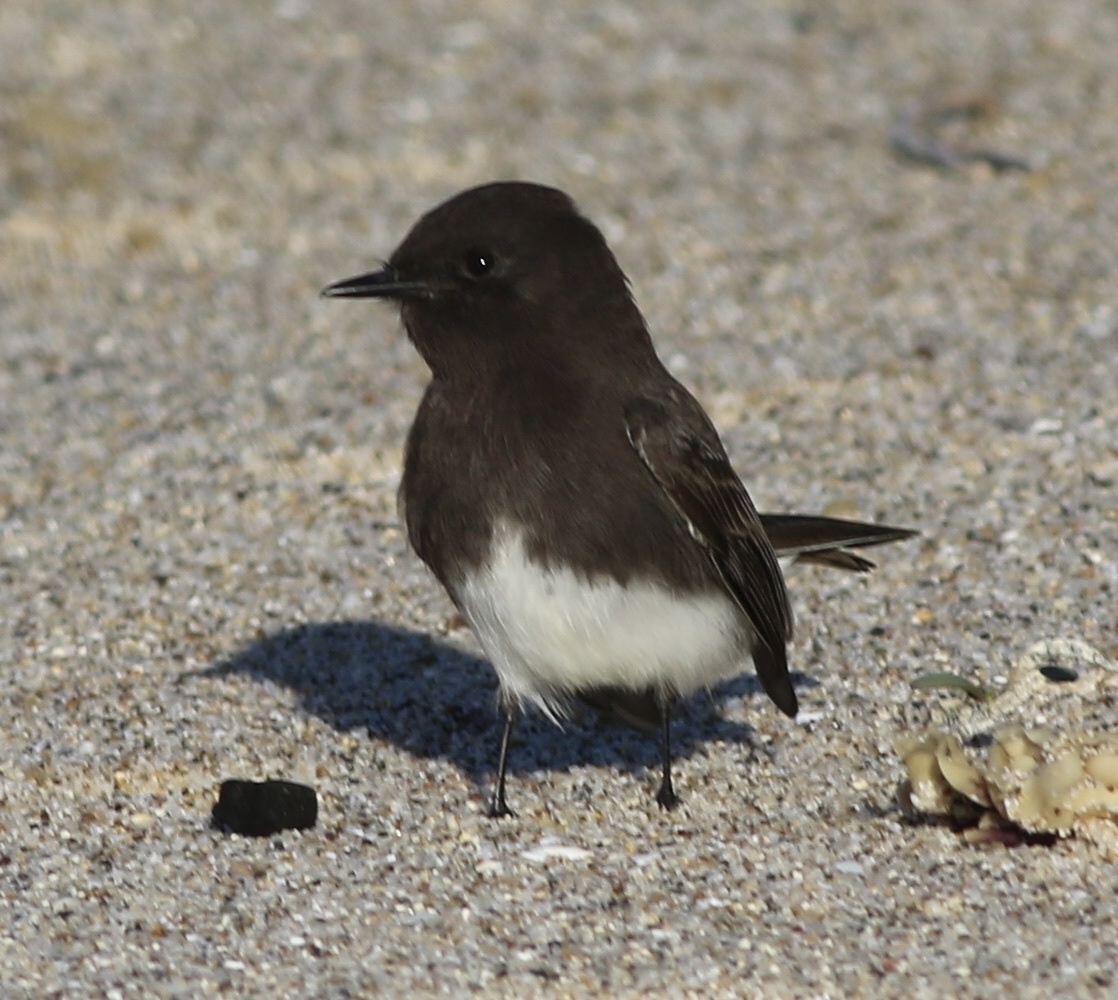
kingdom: Animalia
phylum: Chordata
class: Aves
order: Passeriformes
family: Tyrannidae
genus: Sayornis
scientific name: Sayornis nigricans
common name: Black phoebe
